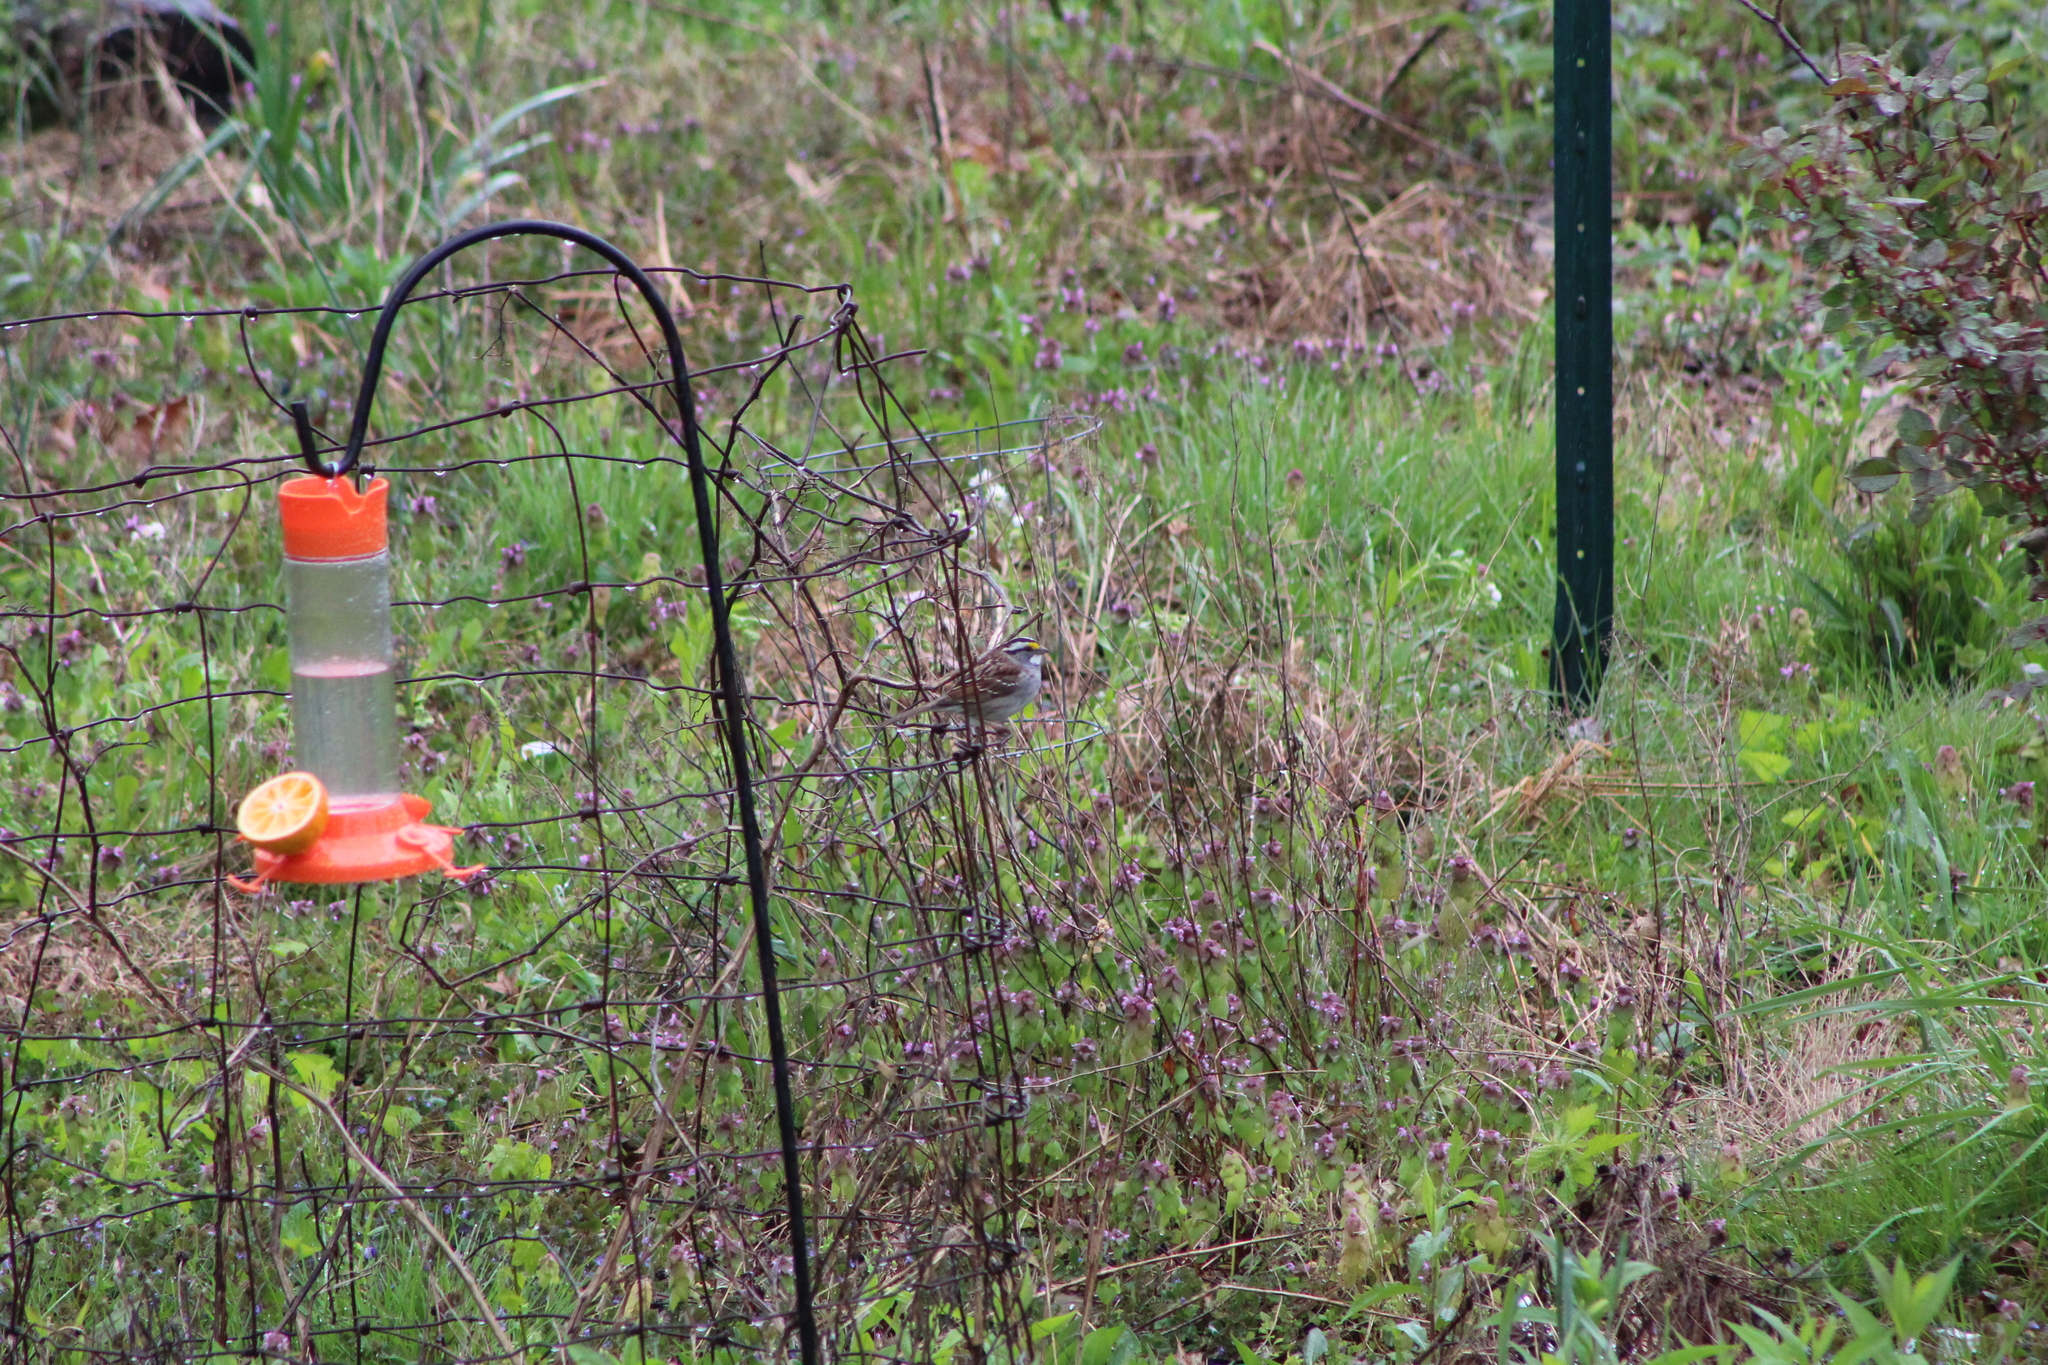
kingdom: Animalia
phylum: Chordata
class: Aves
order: Passeriformes
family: Passerellidae
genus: Zonotrichia
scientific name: Zonotrichia albicollis
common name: White-throated sparrow
